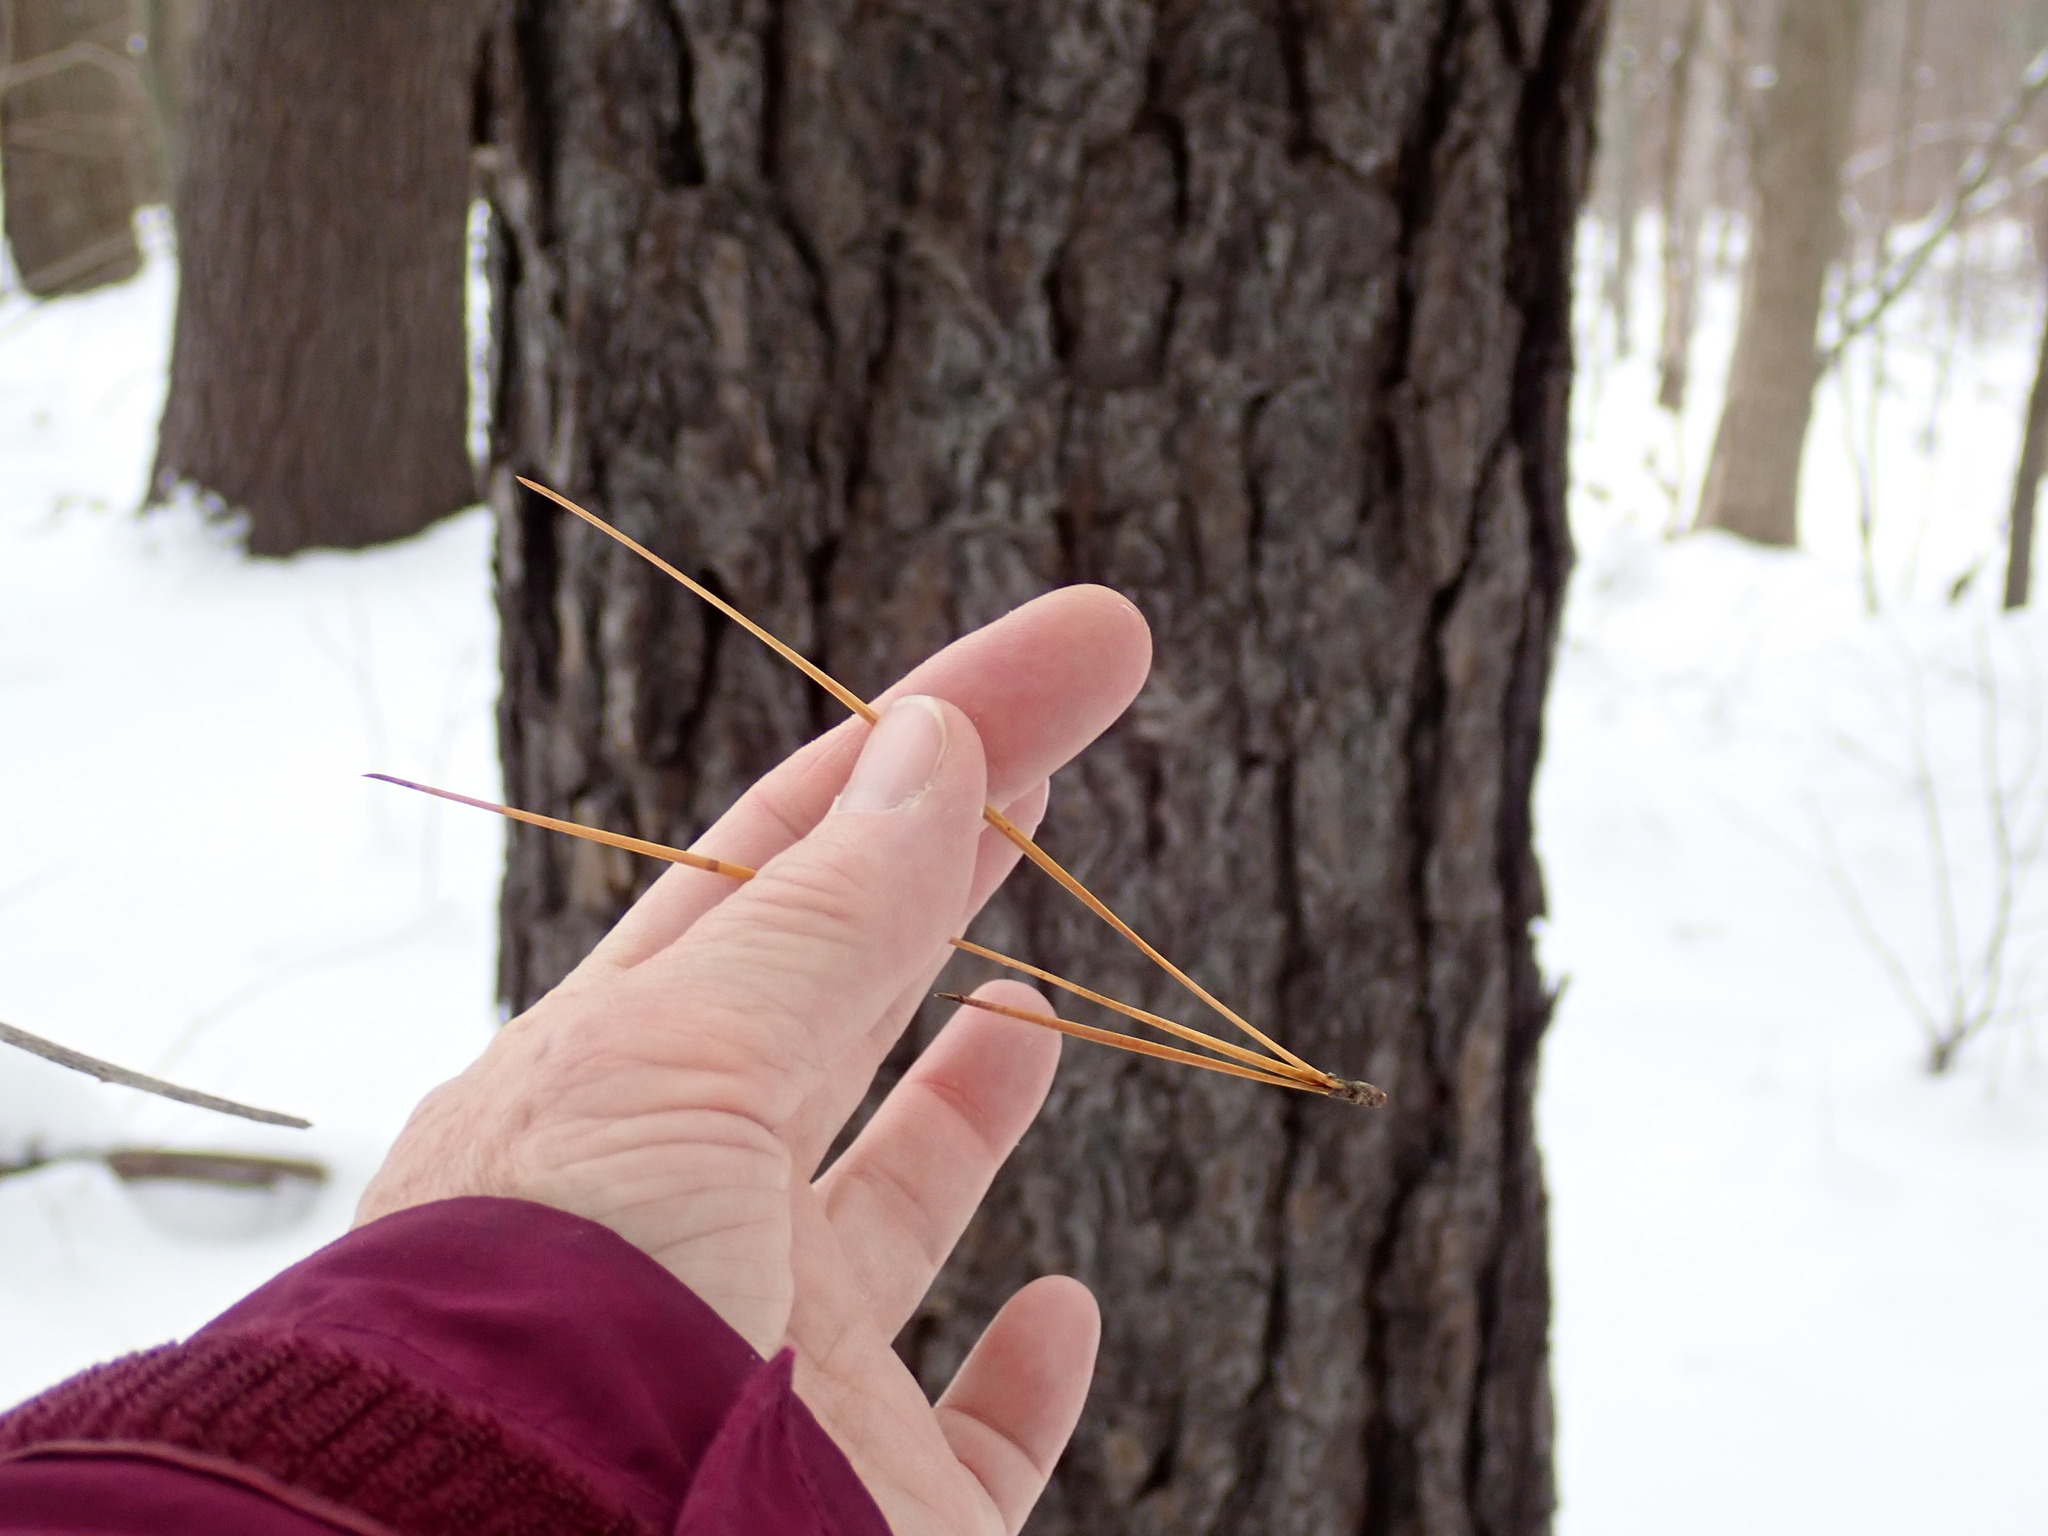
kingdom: Plantae
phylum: Tracheophyta
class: Pinopsida
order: Pinales
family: Pinaceae
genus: Pinus
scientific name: Pinus rigida
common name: Pitch pine
